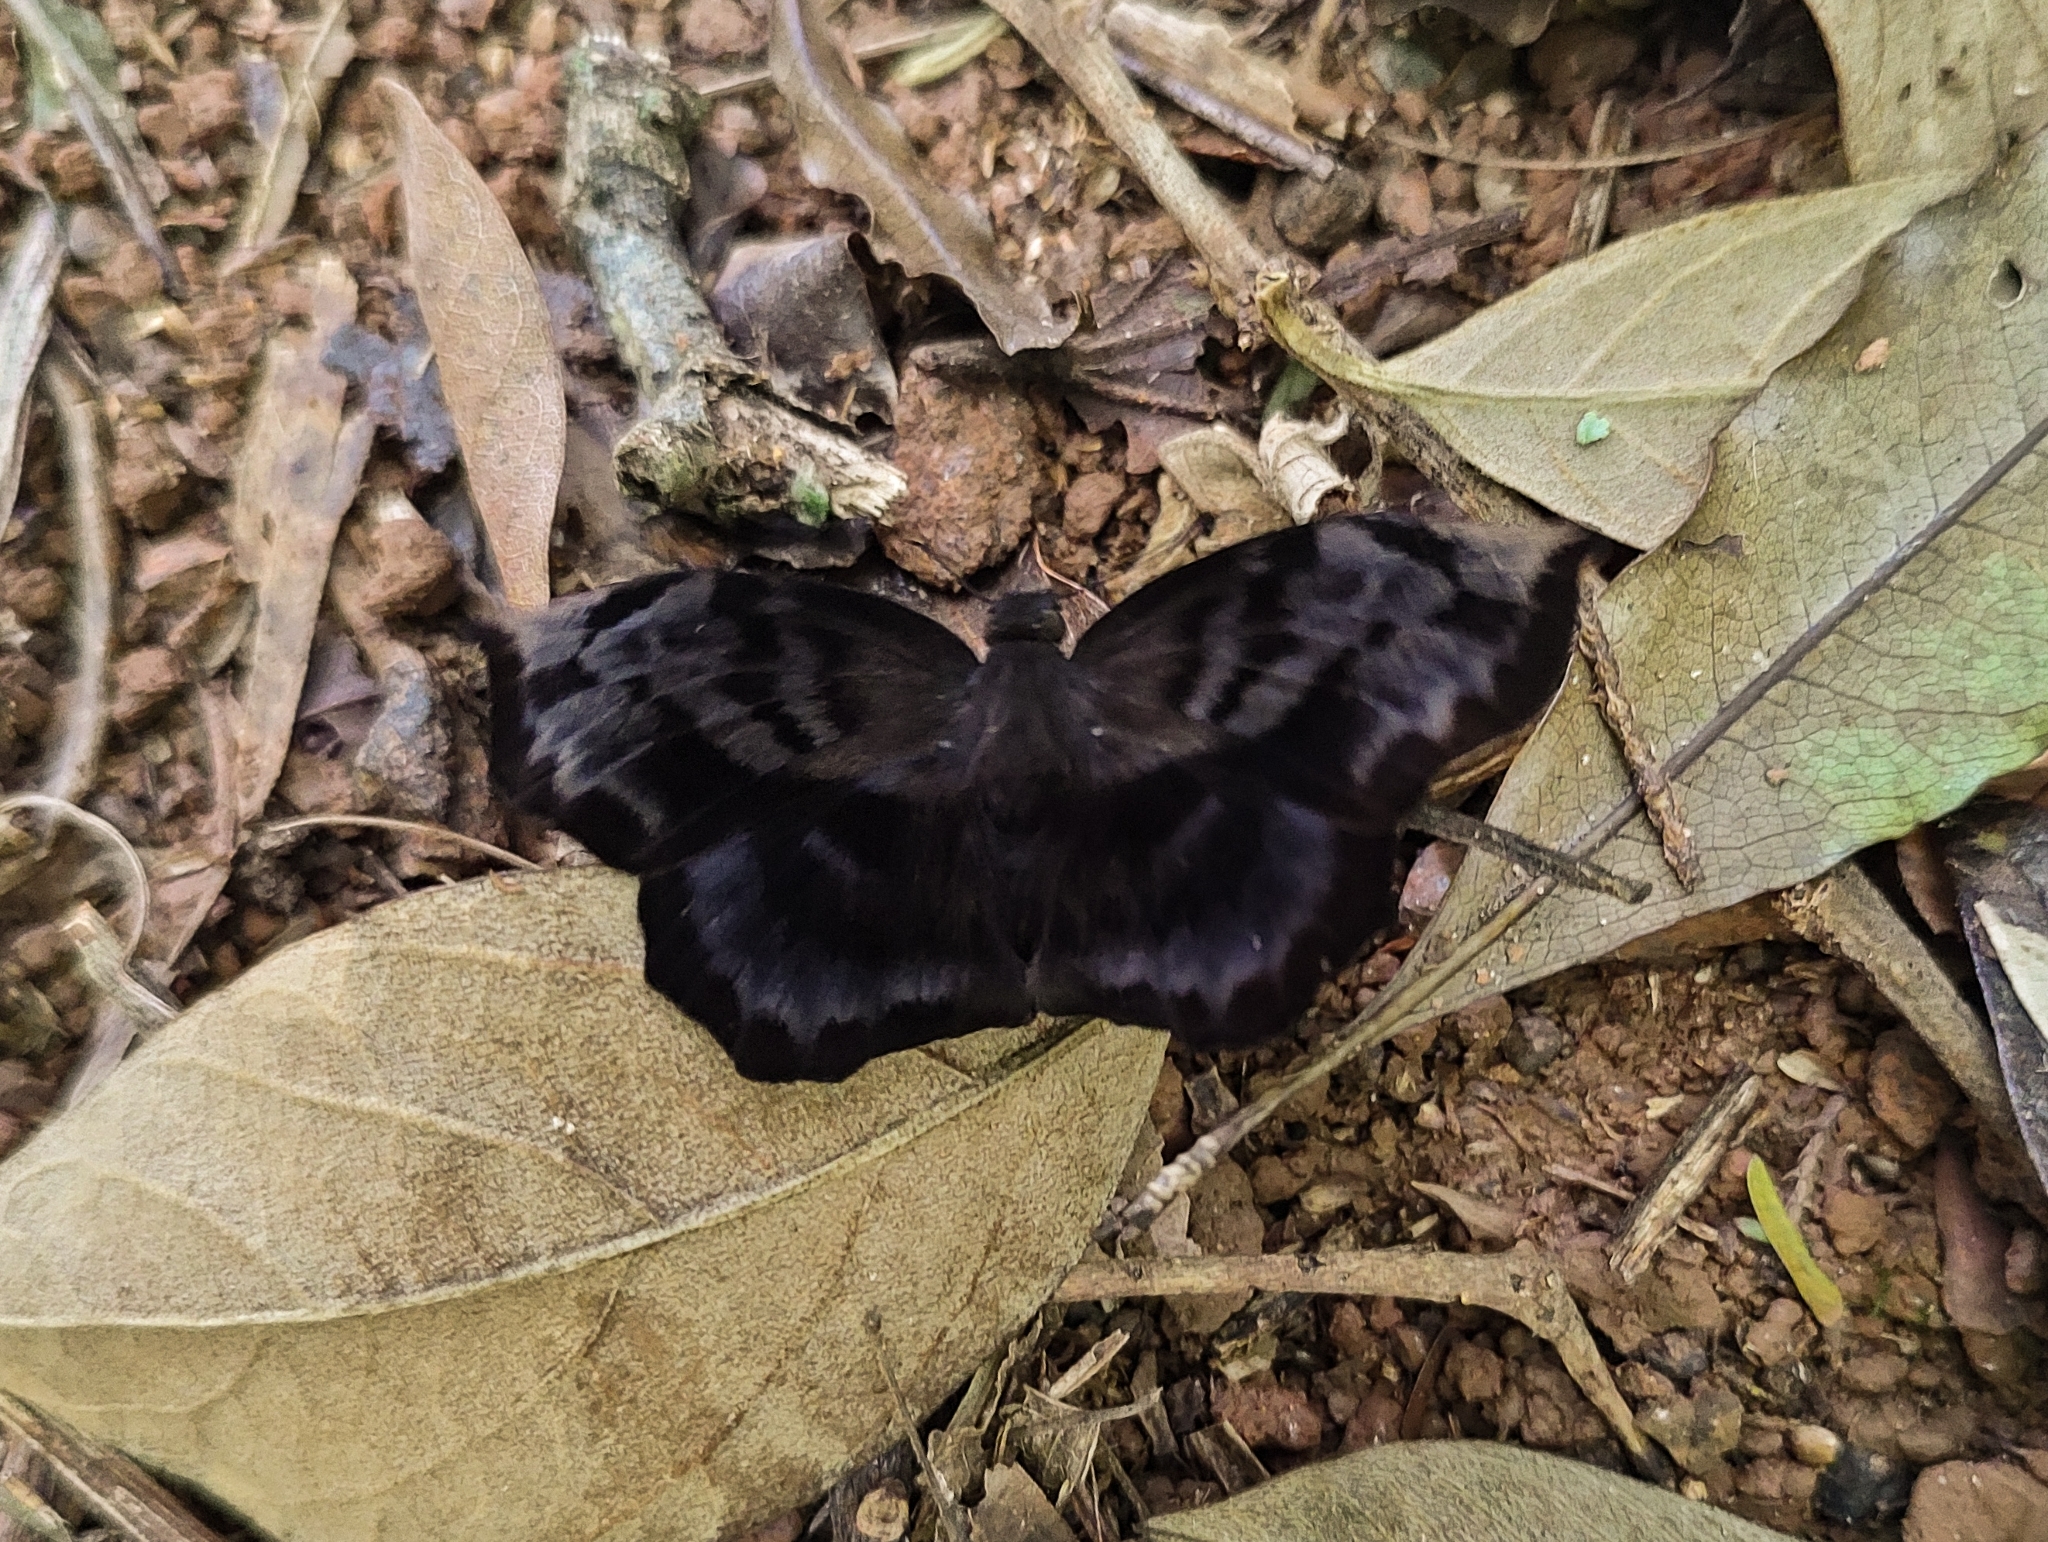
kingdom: Animalia
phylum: Arthropoda
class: Insecta
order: Lepidoptera
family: Hesperiidae
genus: Achlyodes
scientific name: Achlyodes busirus
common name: Giant sicklewing
